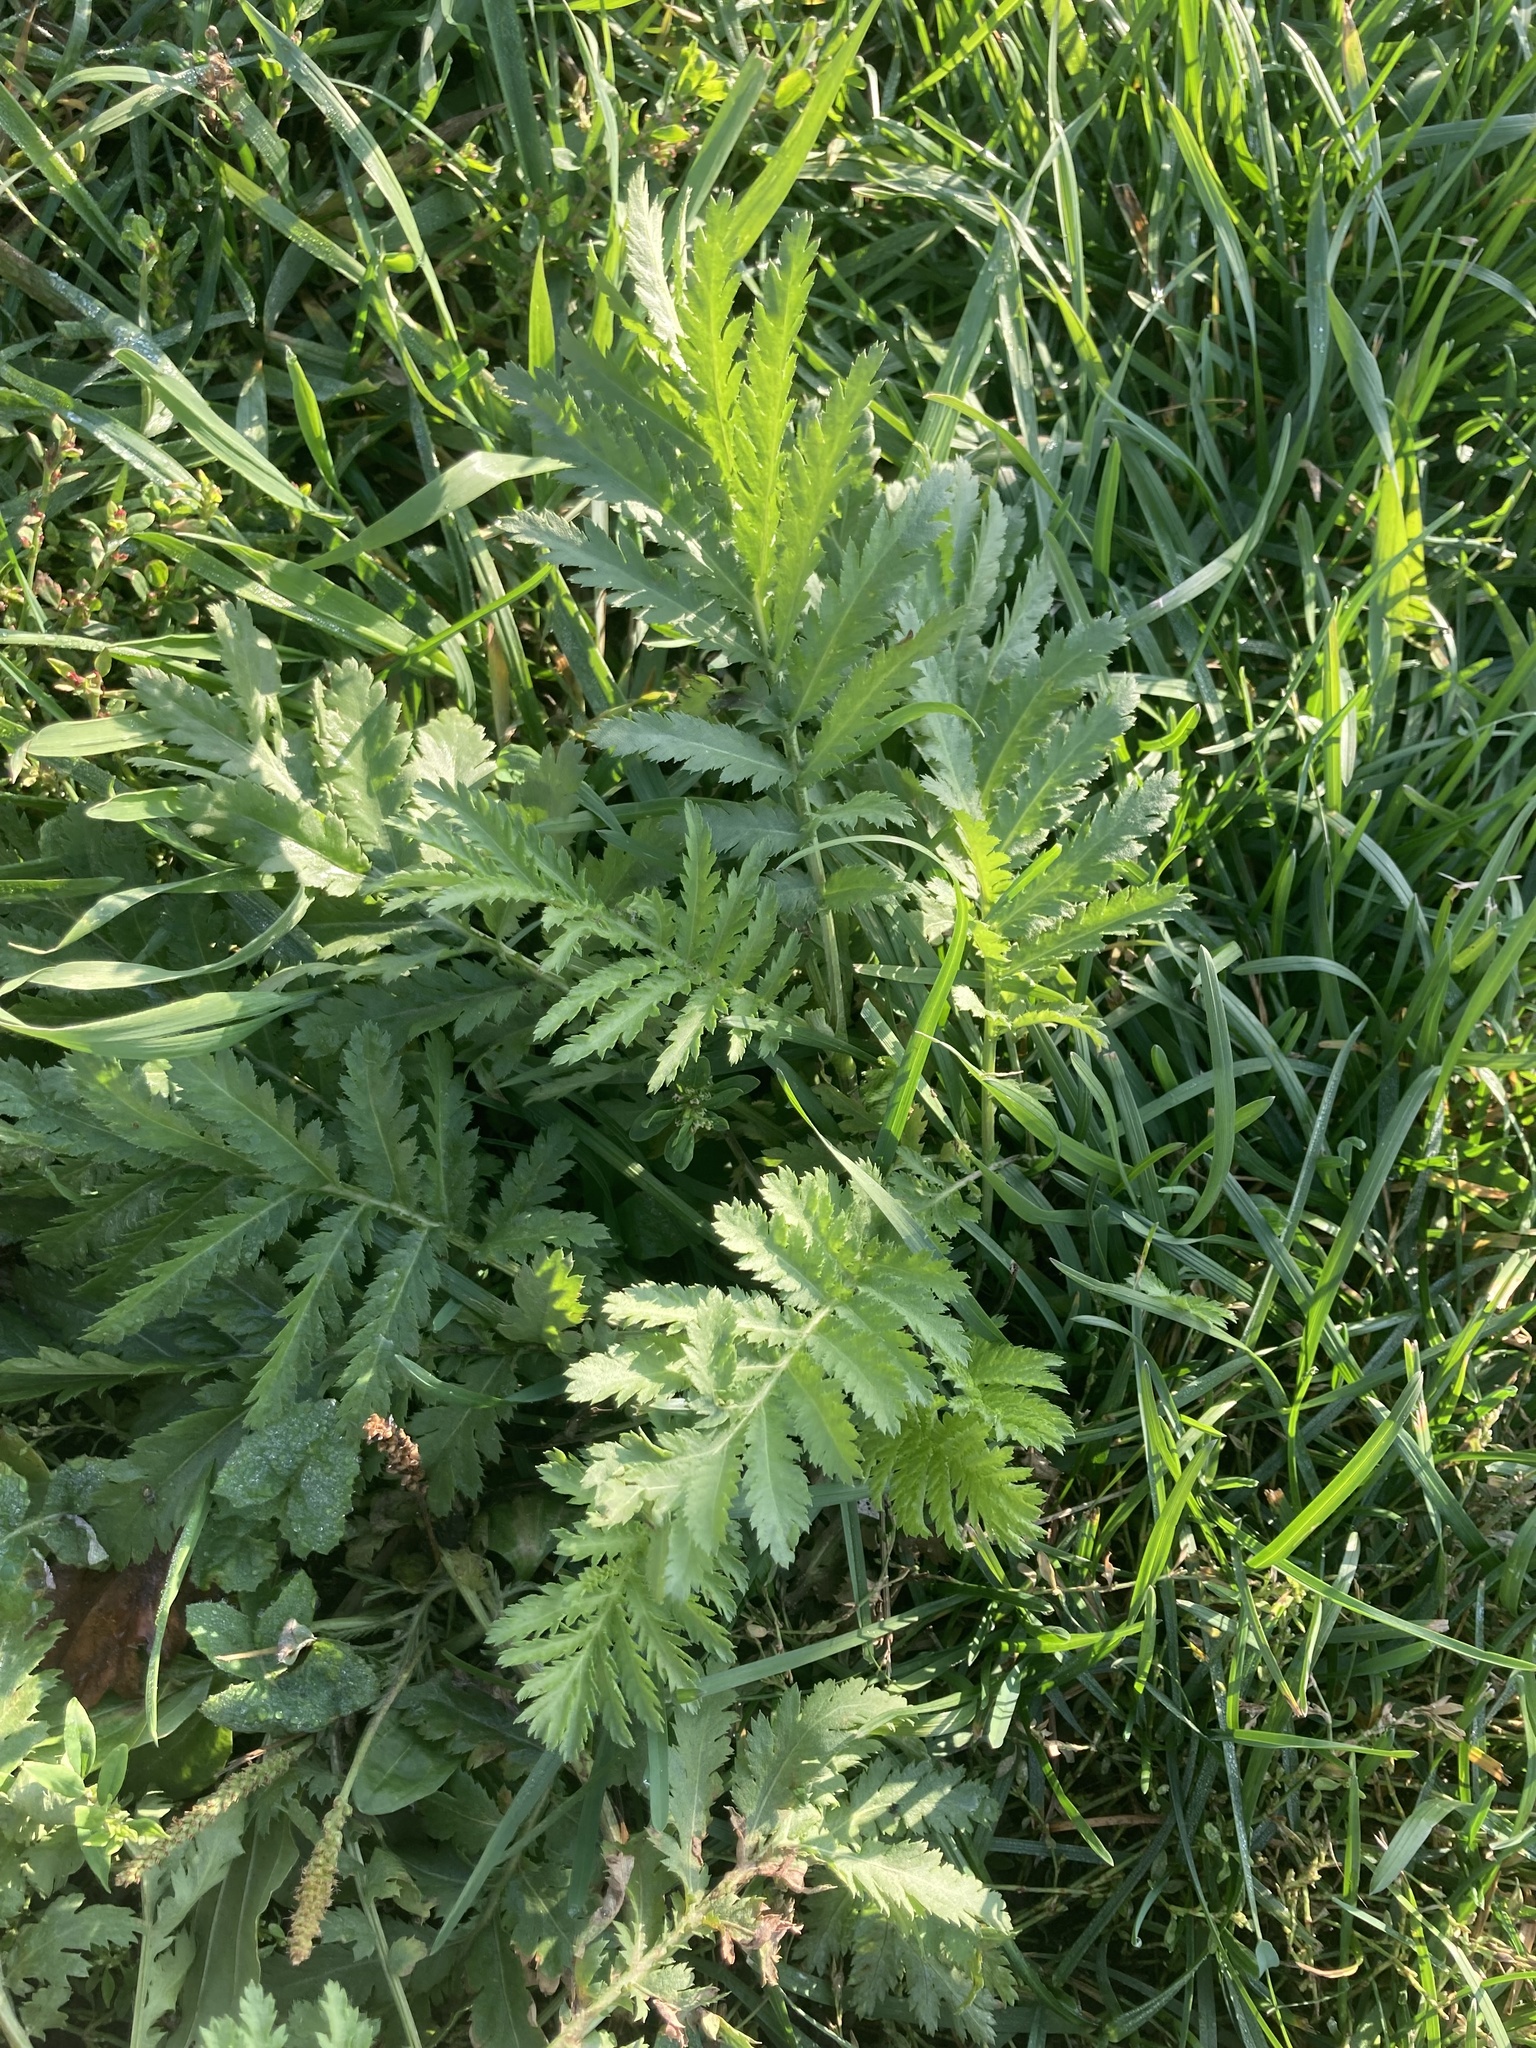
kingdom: Plantae
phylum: Tracheophyta
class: Magnoliopsida
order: Asterales
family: Asteraceae
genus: Tanacetum
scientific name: Tanacetum vulgare
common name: Common tansy
